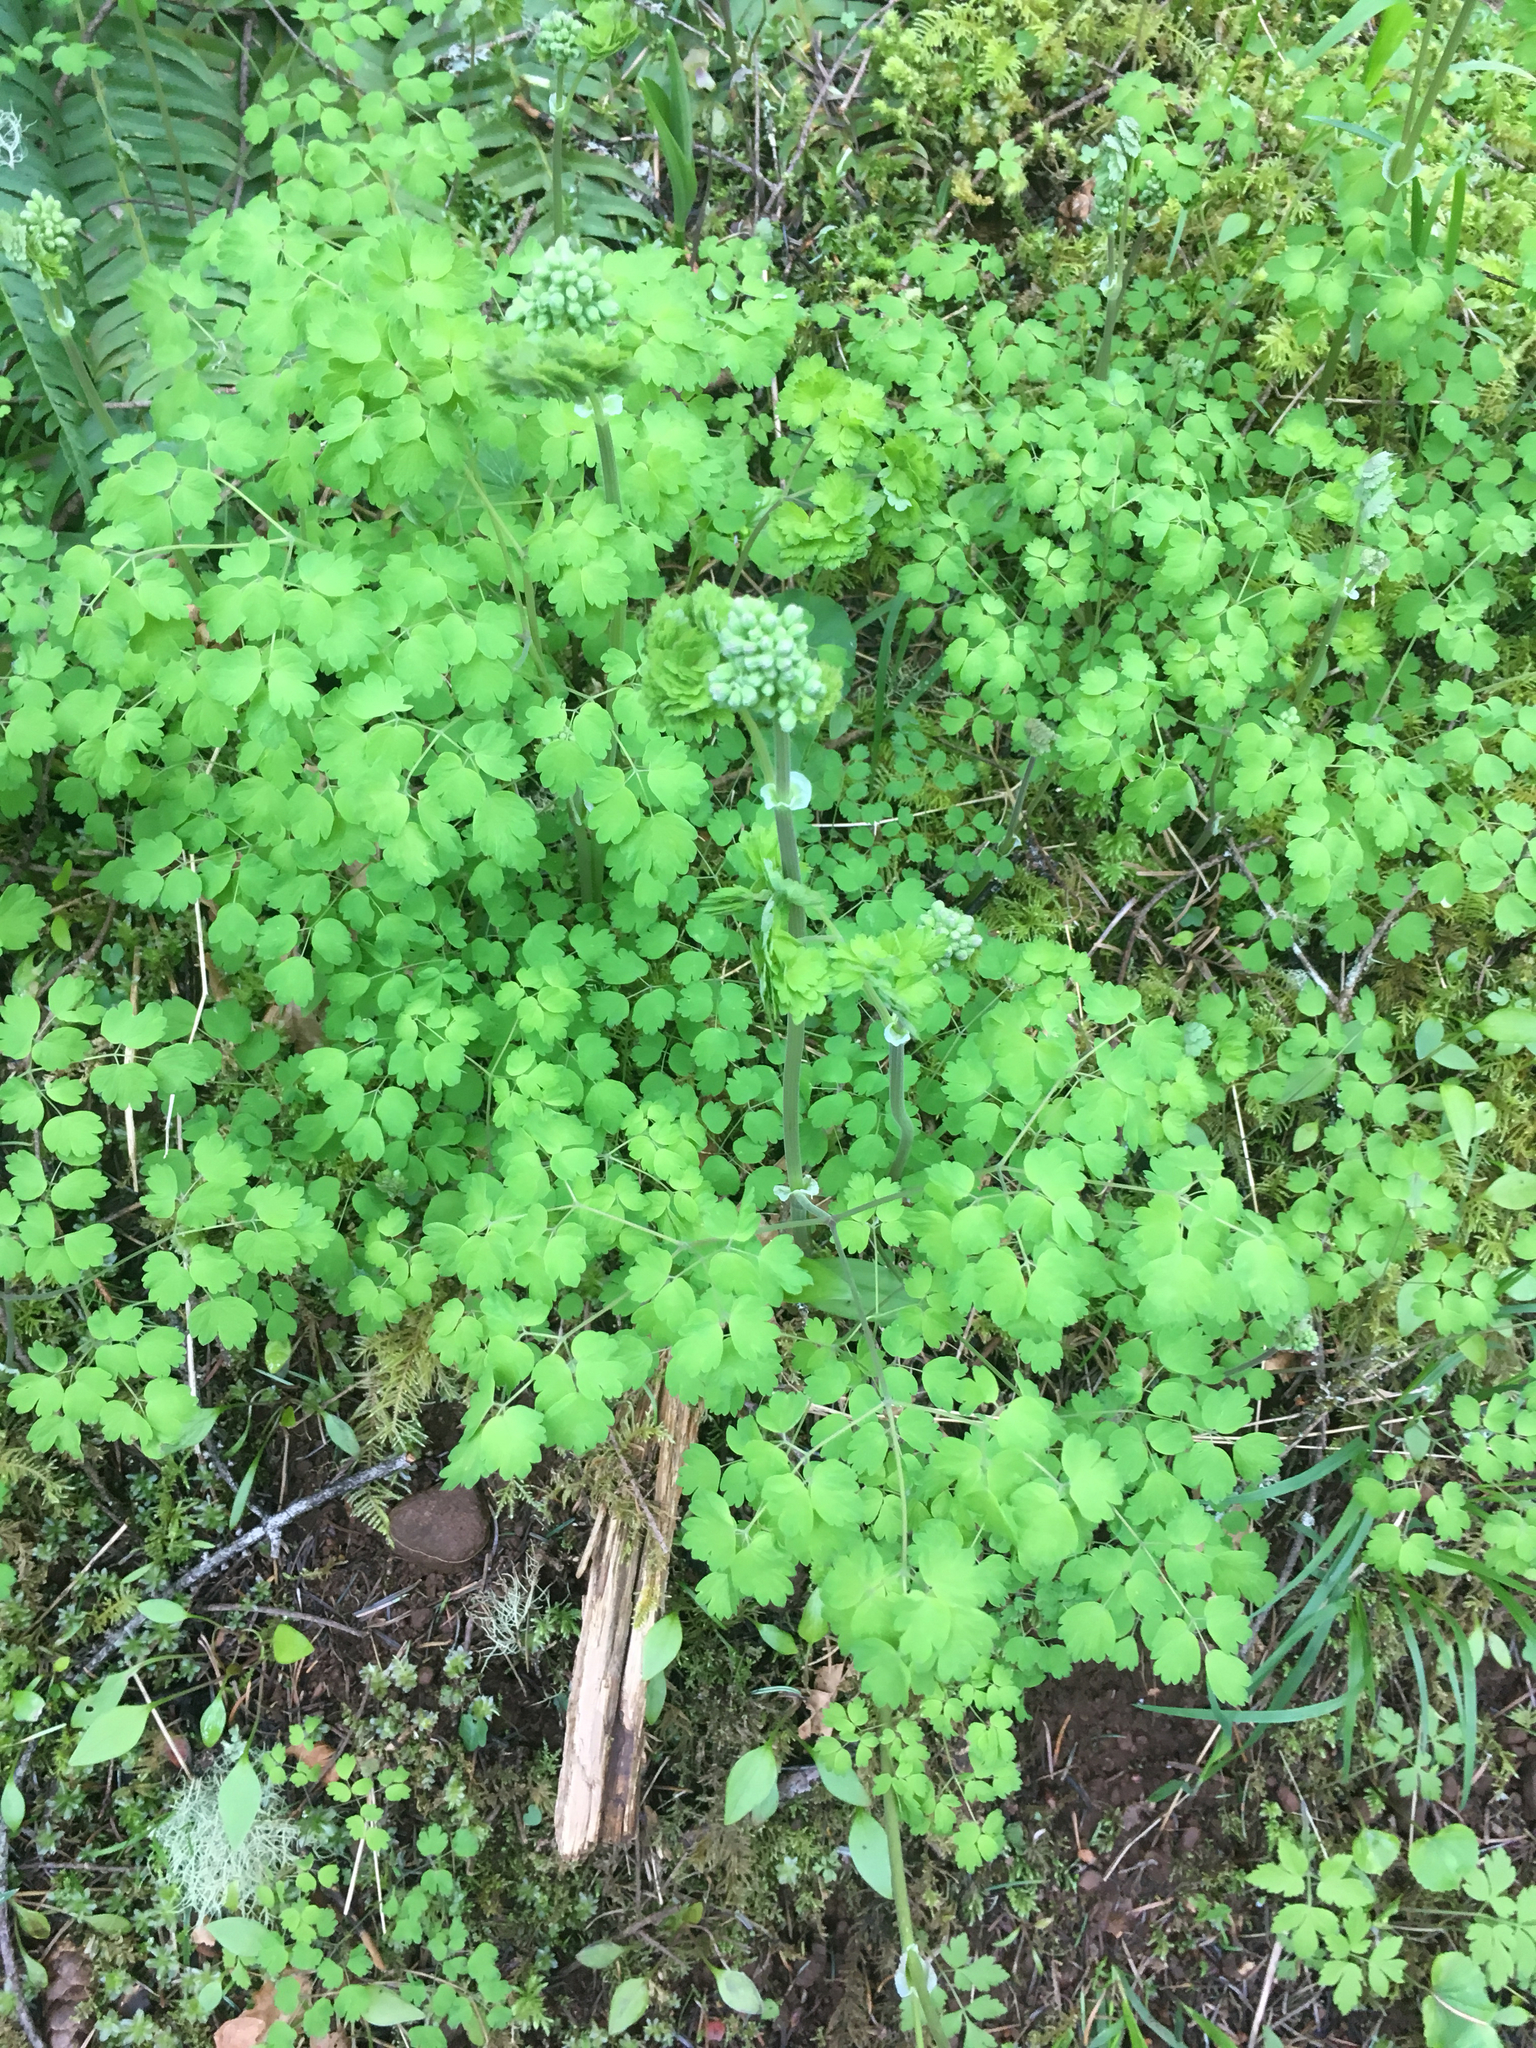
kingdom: Plantae
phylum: Tracheophyta
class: Magnoliopsida
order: Ranunculales
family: Ranunculaceae
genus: Thalictrum
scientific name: Thalictrum occidentale
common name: Western meadow-rue
